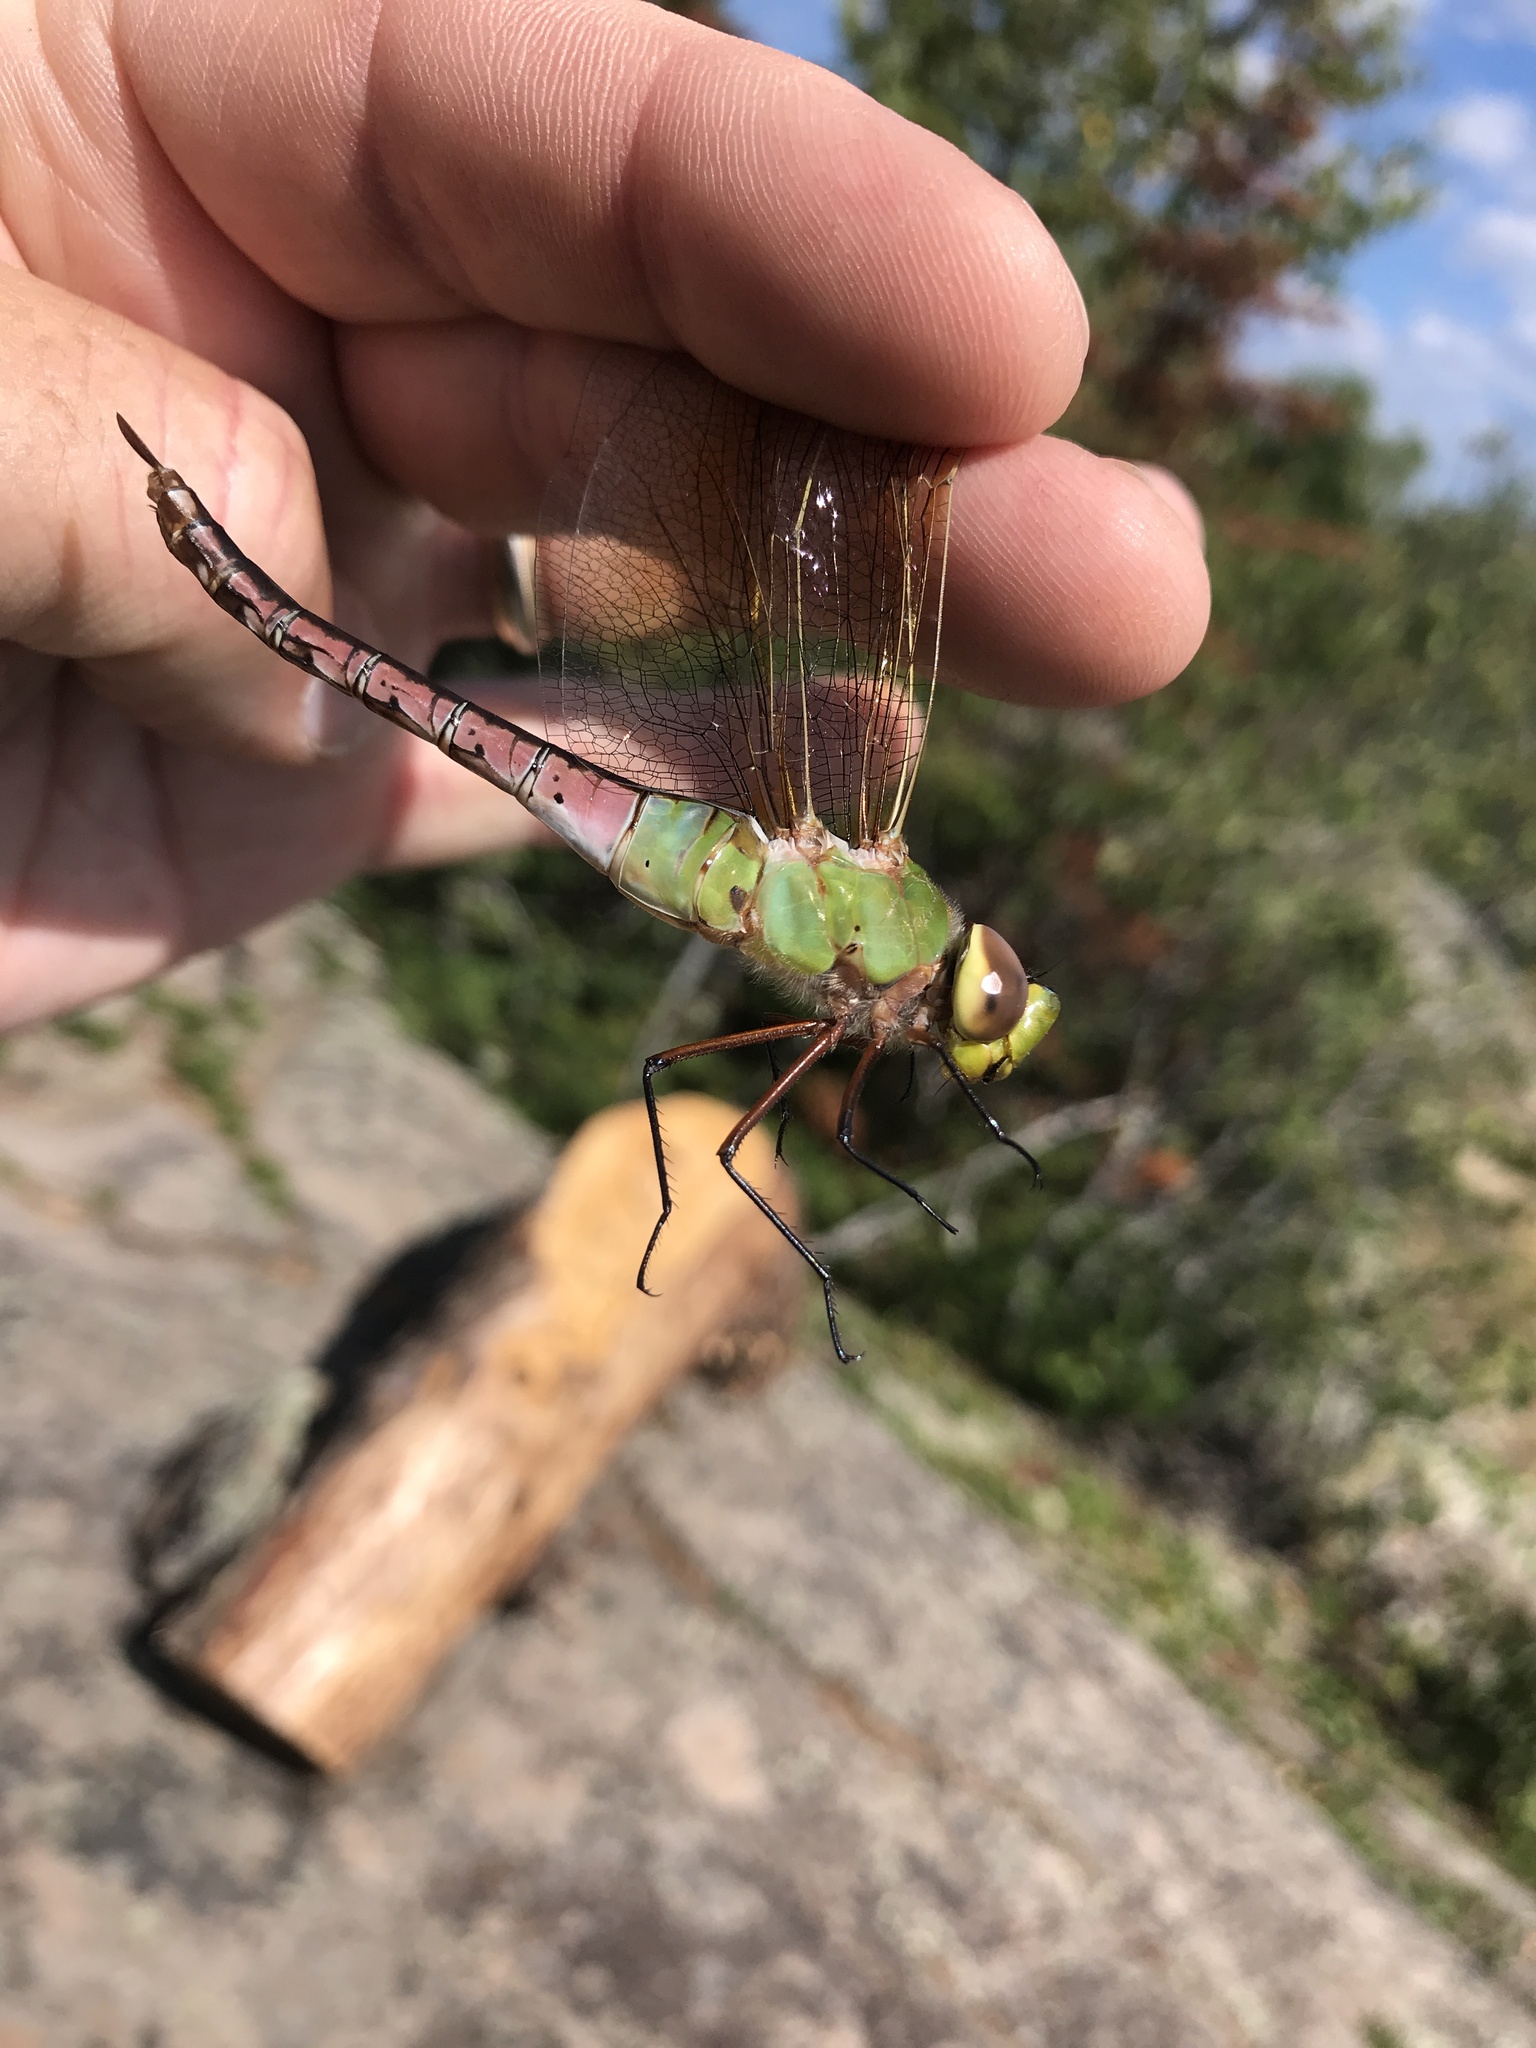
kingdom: Animalia
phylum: Arthropoda
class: Insecta
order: Odonata
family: Aeshnidae
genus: Anax
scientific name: Anax junius
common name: Common green darner
